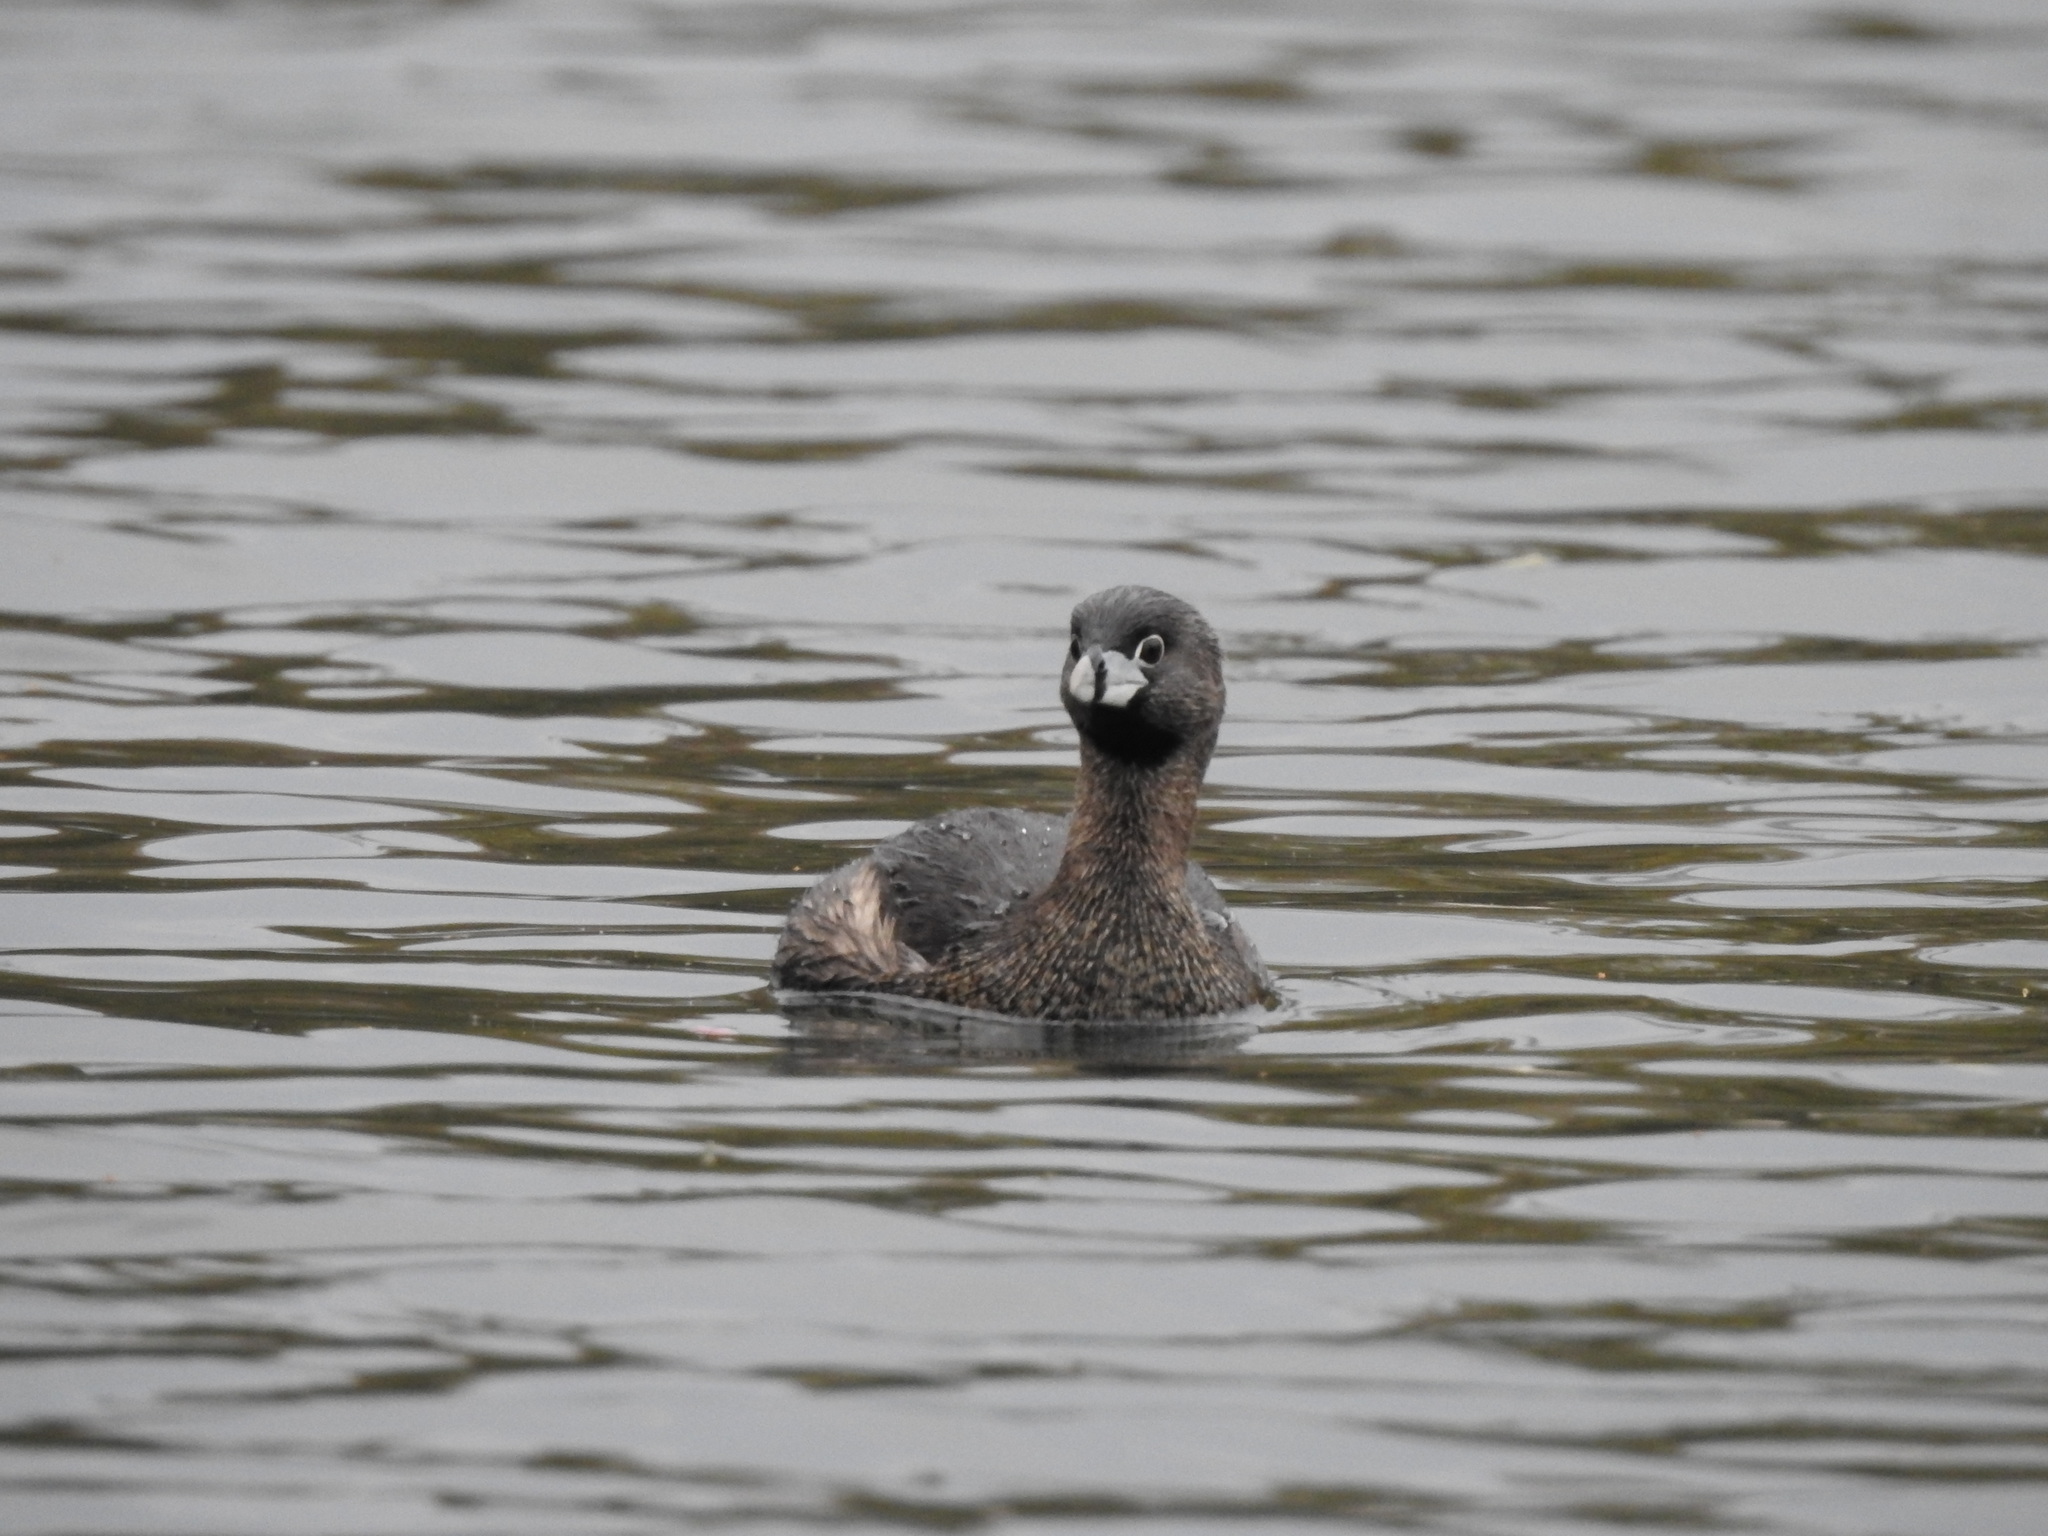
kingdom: Animalia
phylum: Chordata
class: Aves
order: Podicipediformes
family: Podicipedidae
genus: Podilymbus
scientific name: Podilymbus podiceps
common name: Pied-billed grebe
